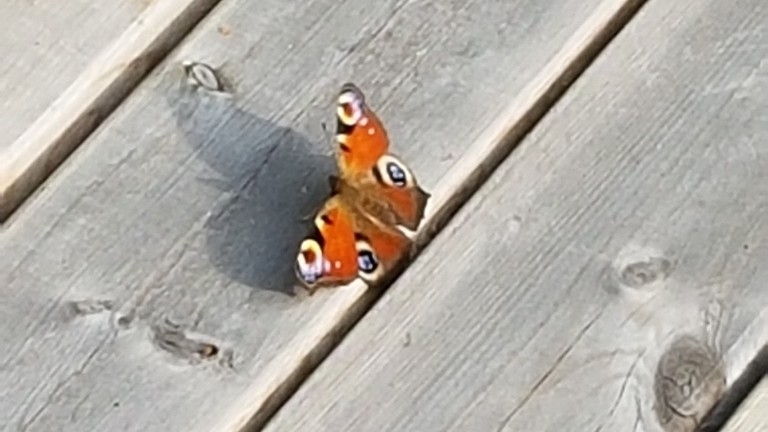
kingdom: Animalia
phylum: Arthropoda
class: Insecta
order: Lepidoptera
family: Nymphalidae
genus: Aglais
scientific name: Aglais io
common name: Peacock
